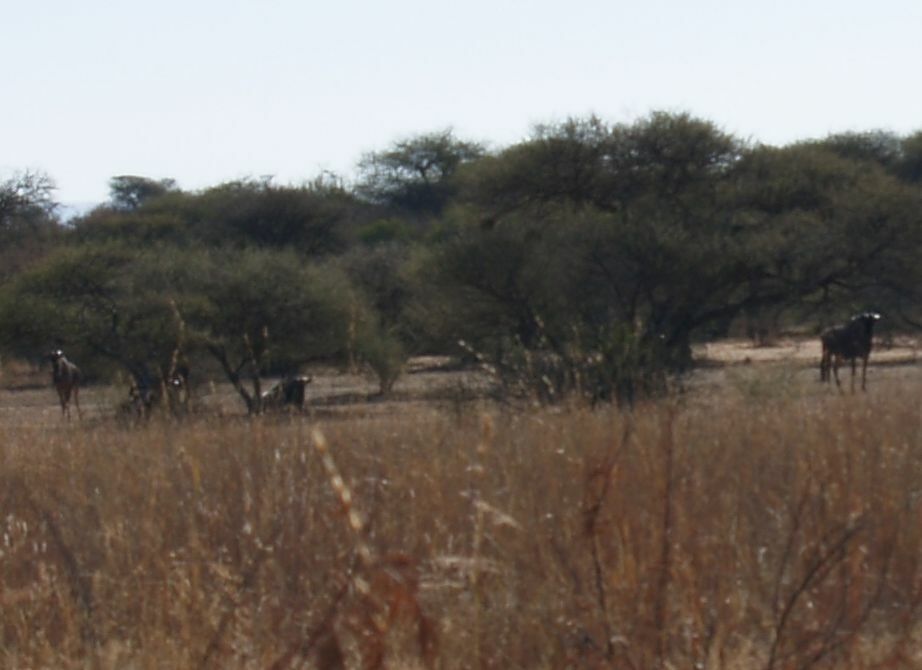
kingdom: Animalia
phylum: Chordata
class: Mammalia
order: Artiodactyla
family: Bovidae
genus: Connochaetes
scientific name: Connochaetes taurinus
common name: Blue wildebeest
